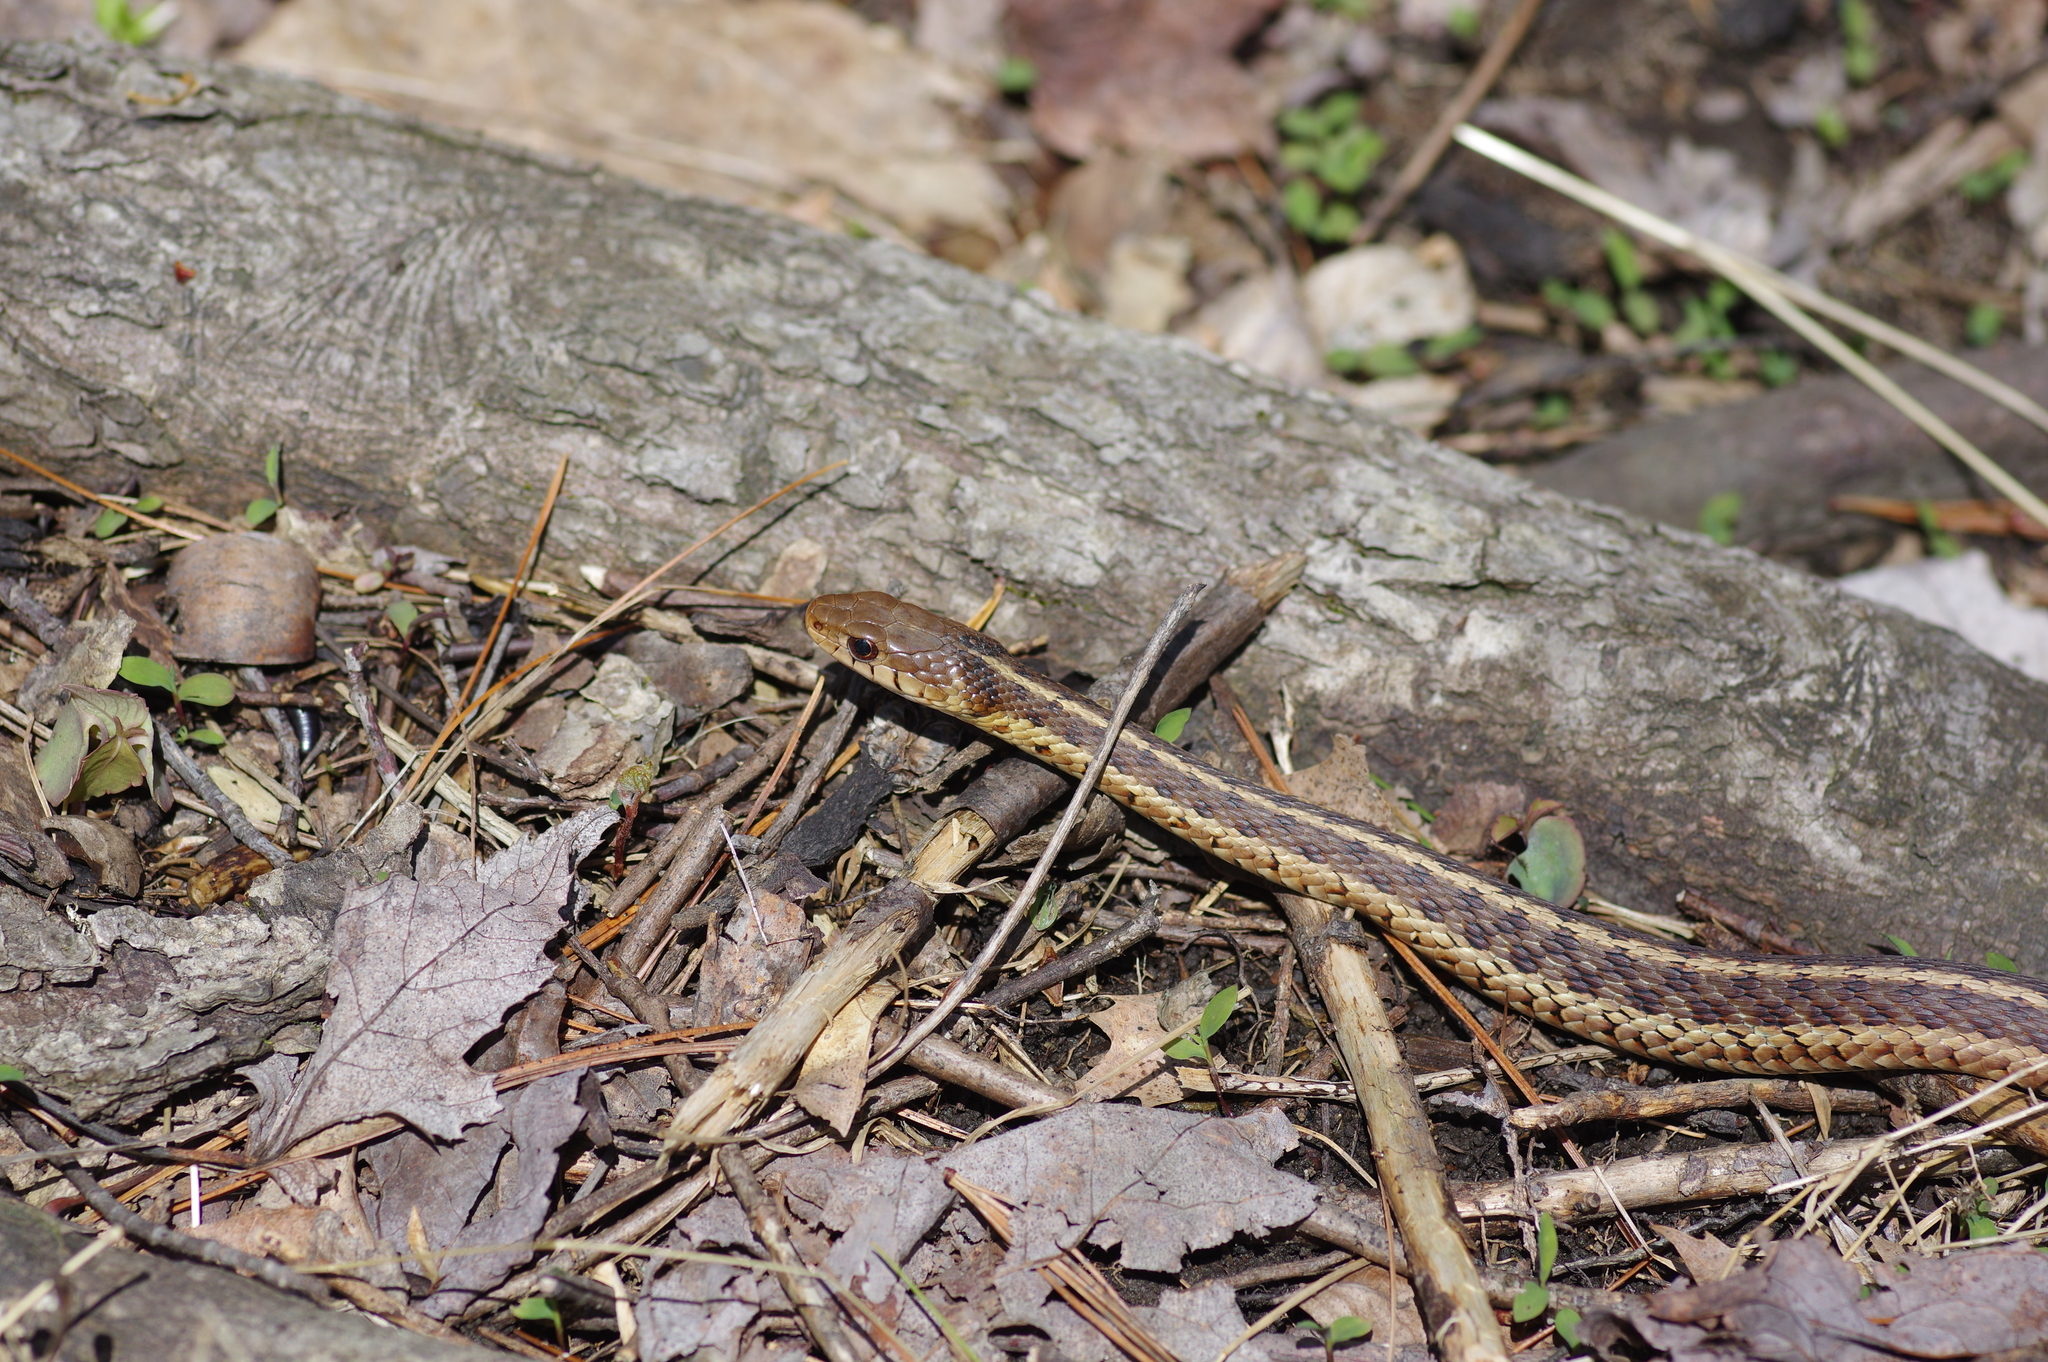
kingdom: Animalia
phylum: Chordata
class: Squamata
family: Colubridae
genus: Thamnophis
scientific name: Thamnophis sirtalis
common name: Common garter snake
